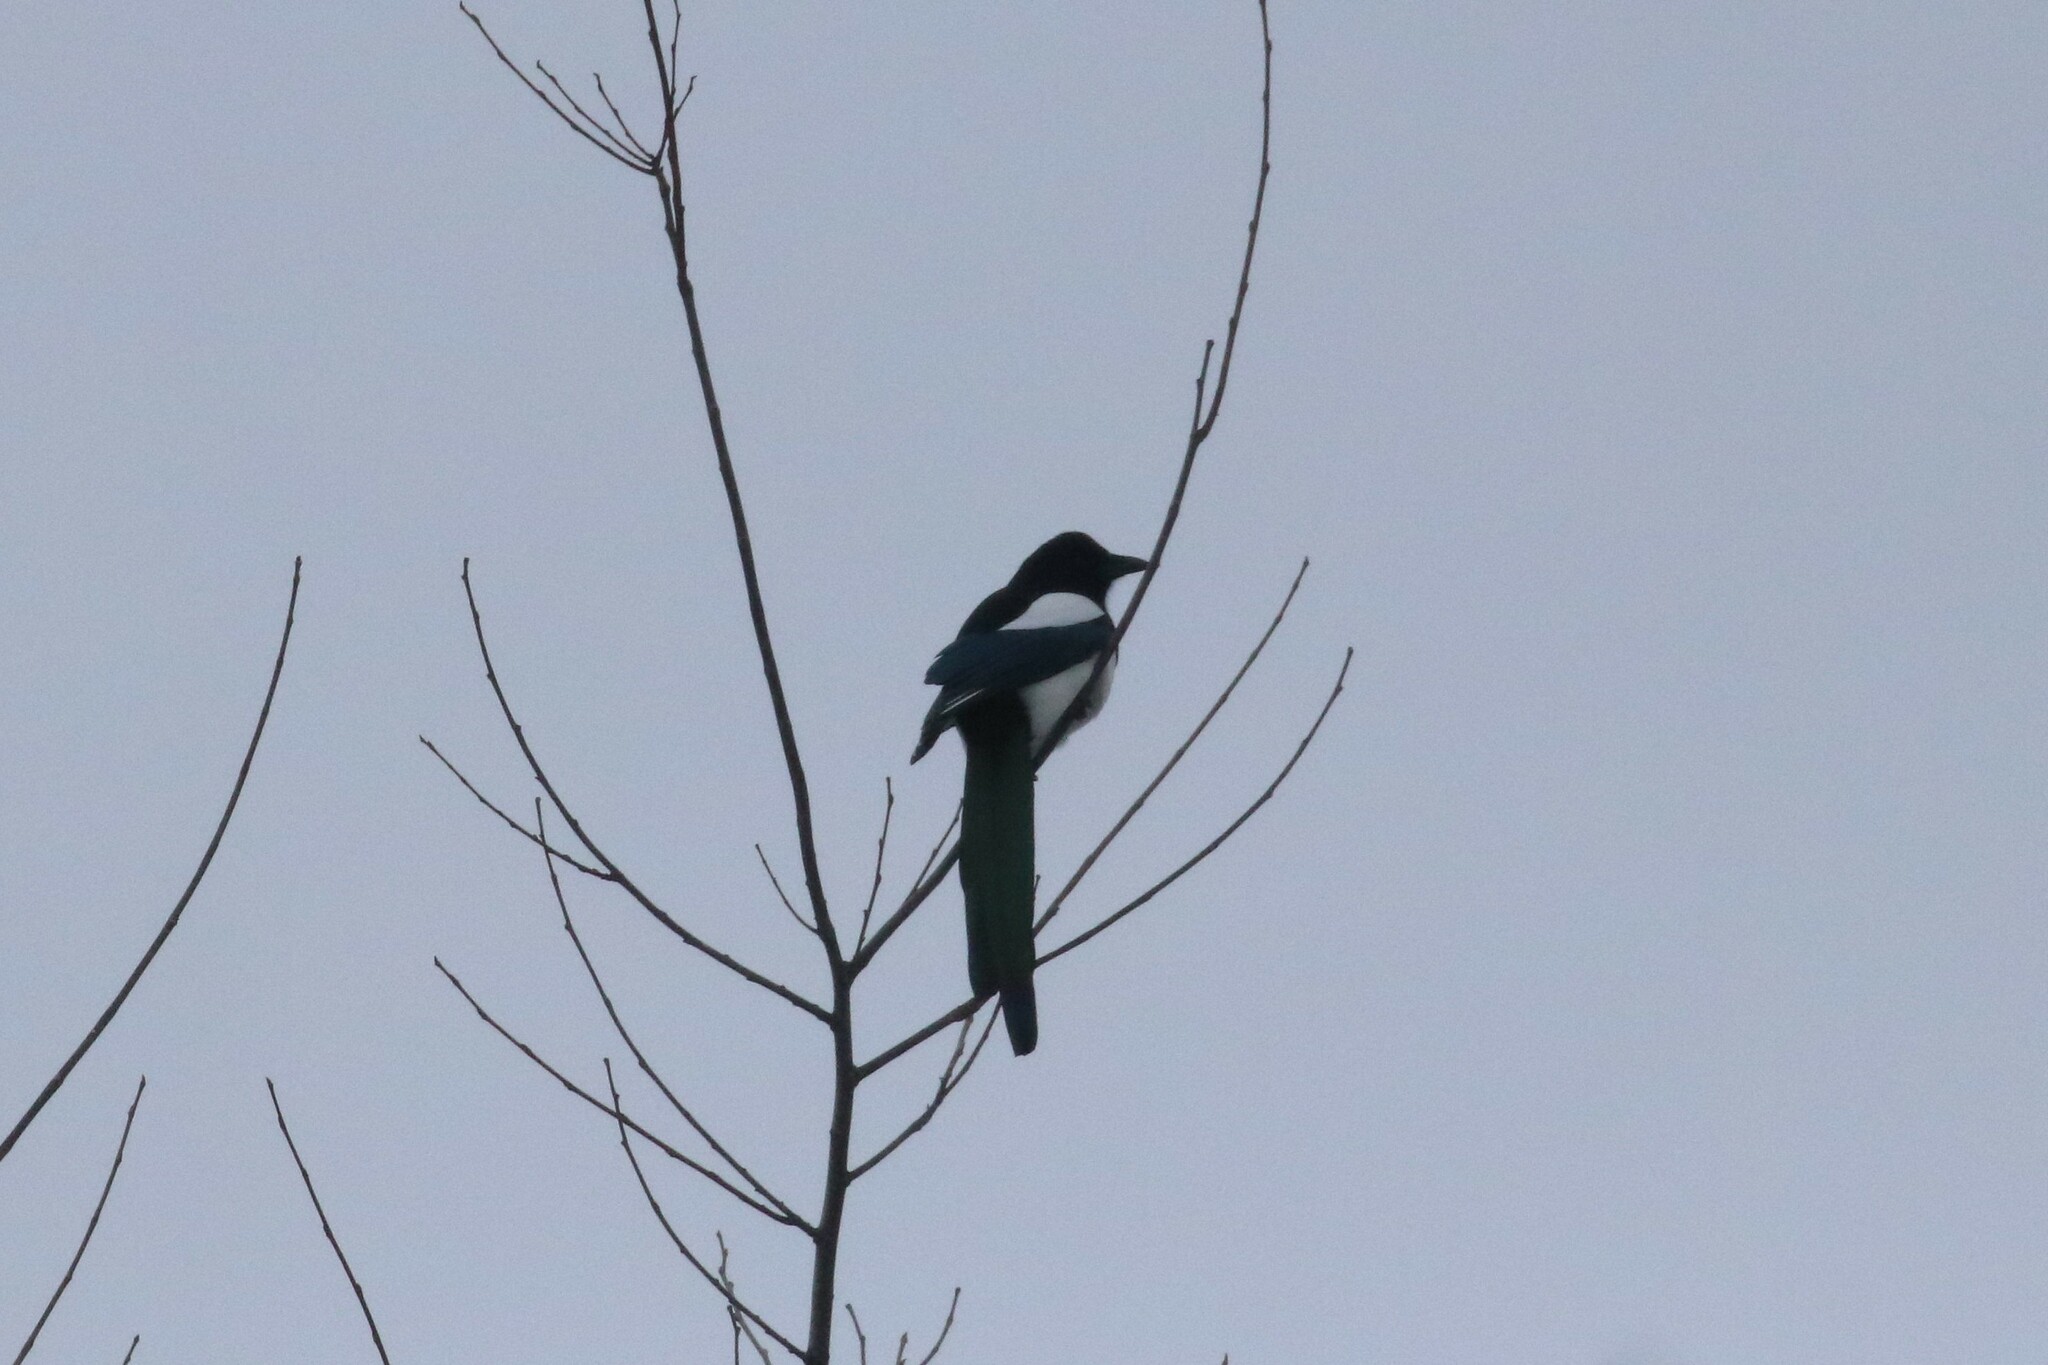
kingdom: Animalia
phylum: Chordata
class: Aves
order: Passeriformes
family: Corvidae
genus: Pica
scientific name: Pica pica
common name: Eurasian magpie
